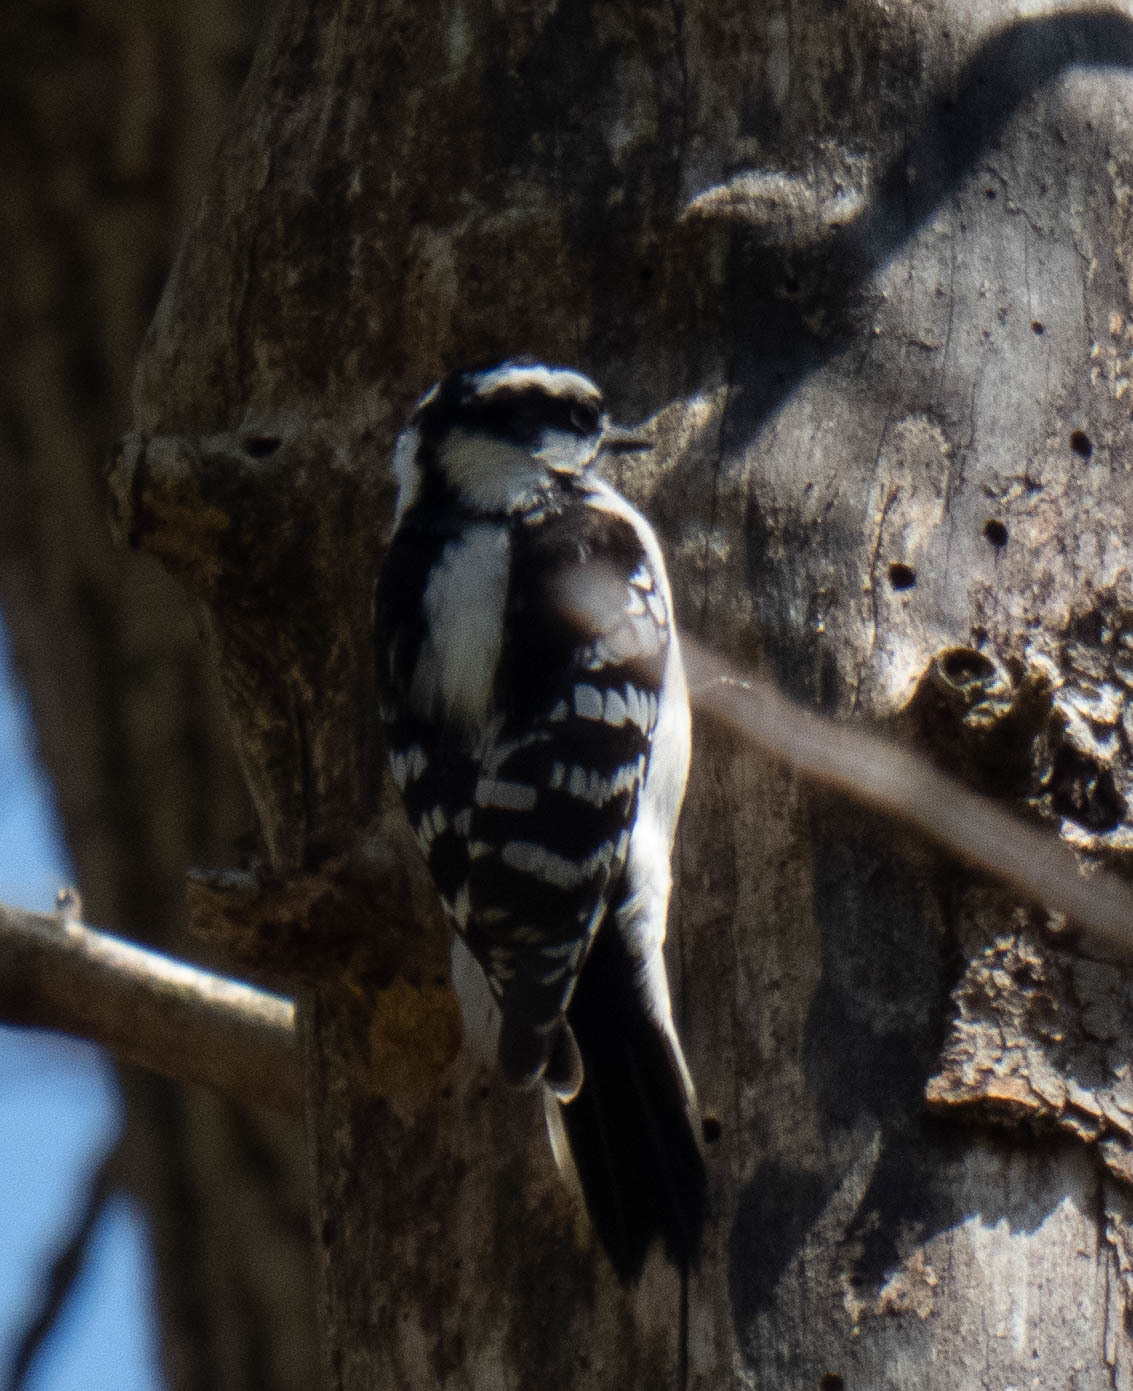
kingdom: Animalia
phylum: Chordata
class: Aves
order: Piciformes
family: Picidae
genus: Dryobates
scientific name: Dryobates pubescens
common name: Downy woodpecker
